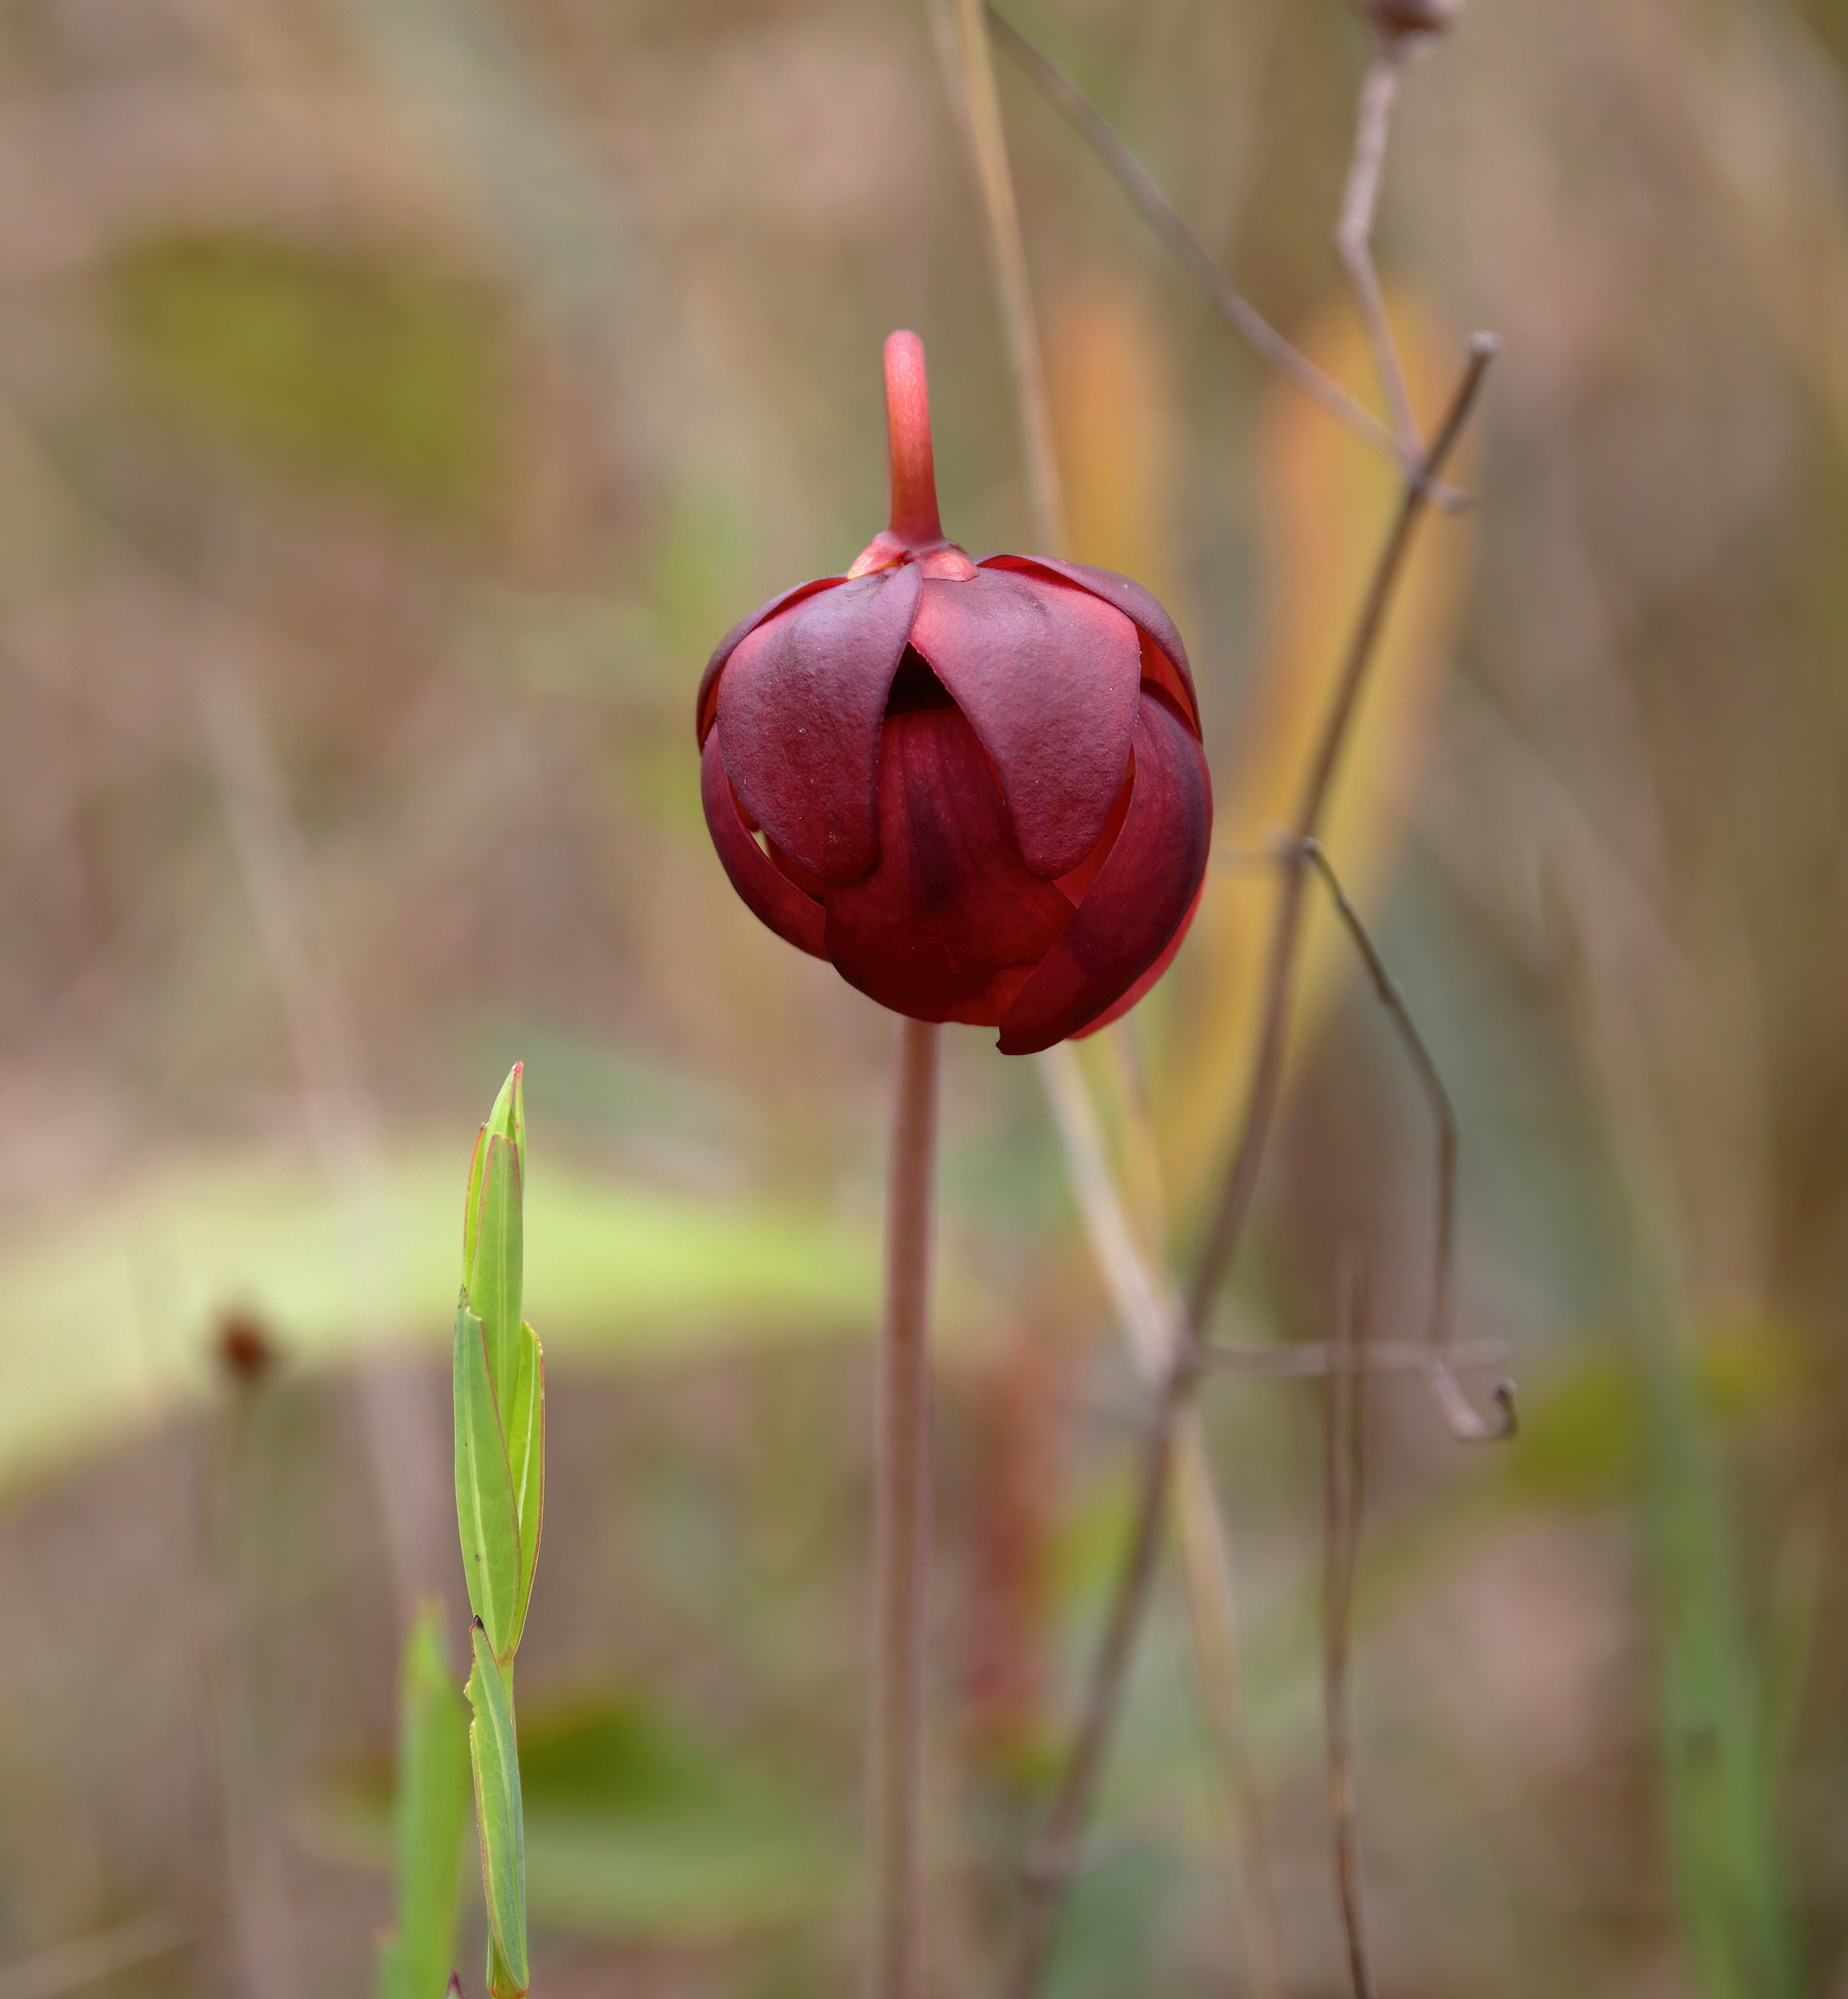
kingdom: Plantae
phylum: Tracheophyta
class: Magnoliopsida
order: Ericales
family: Sarraceniaceae
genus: Sarracenia
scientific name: Sarracenia psittacina
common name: Parrot pitcherplant
